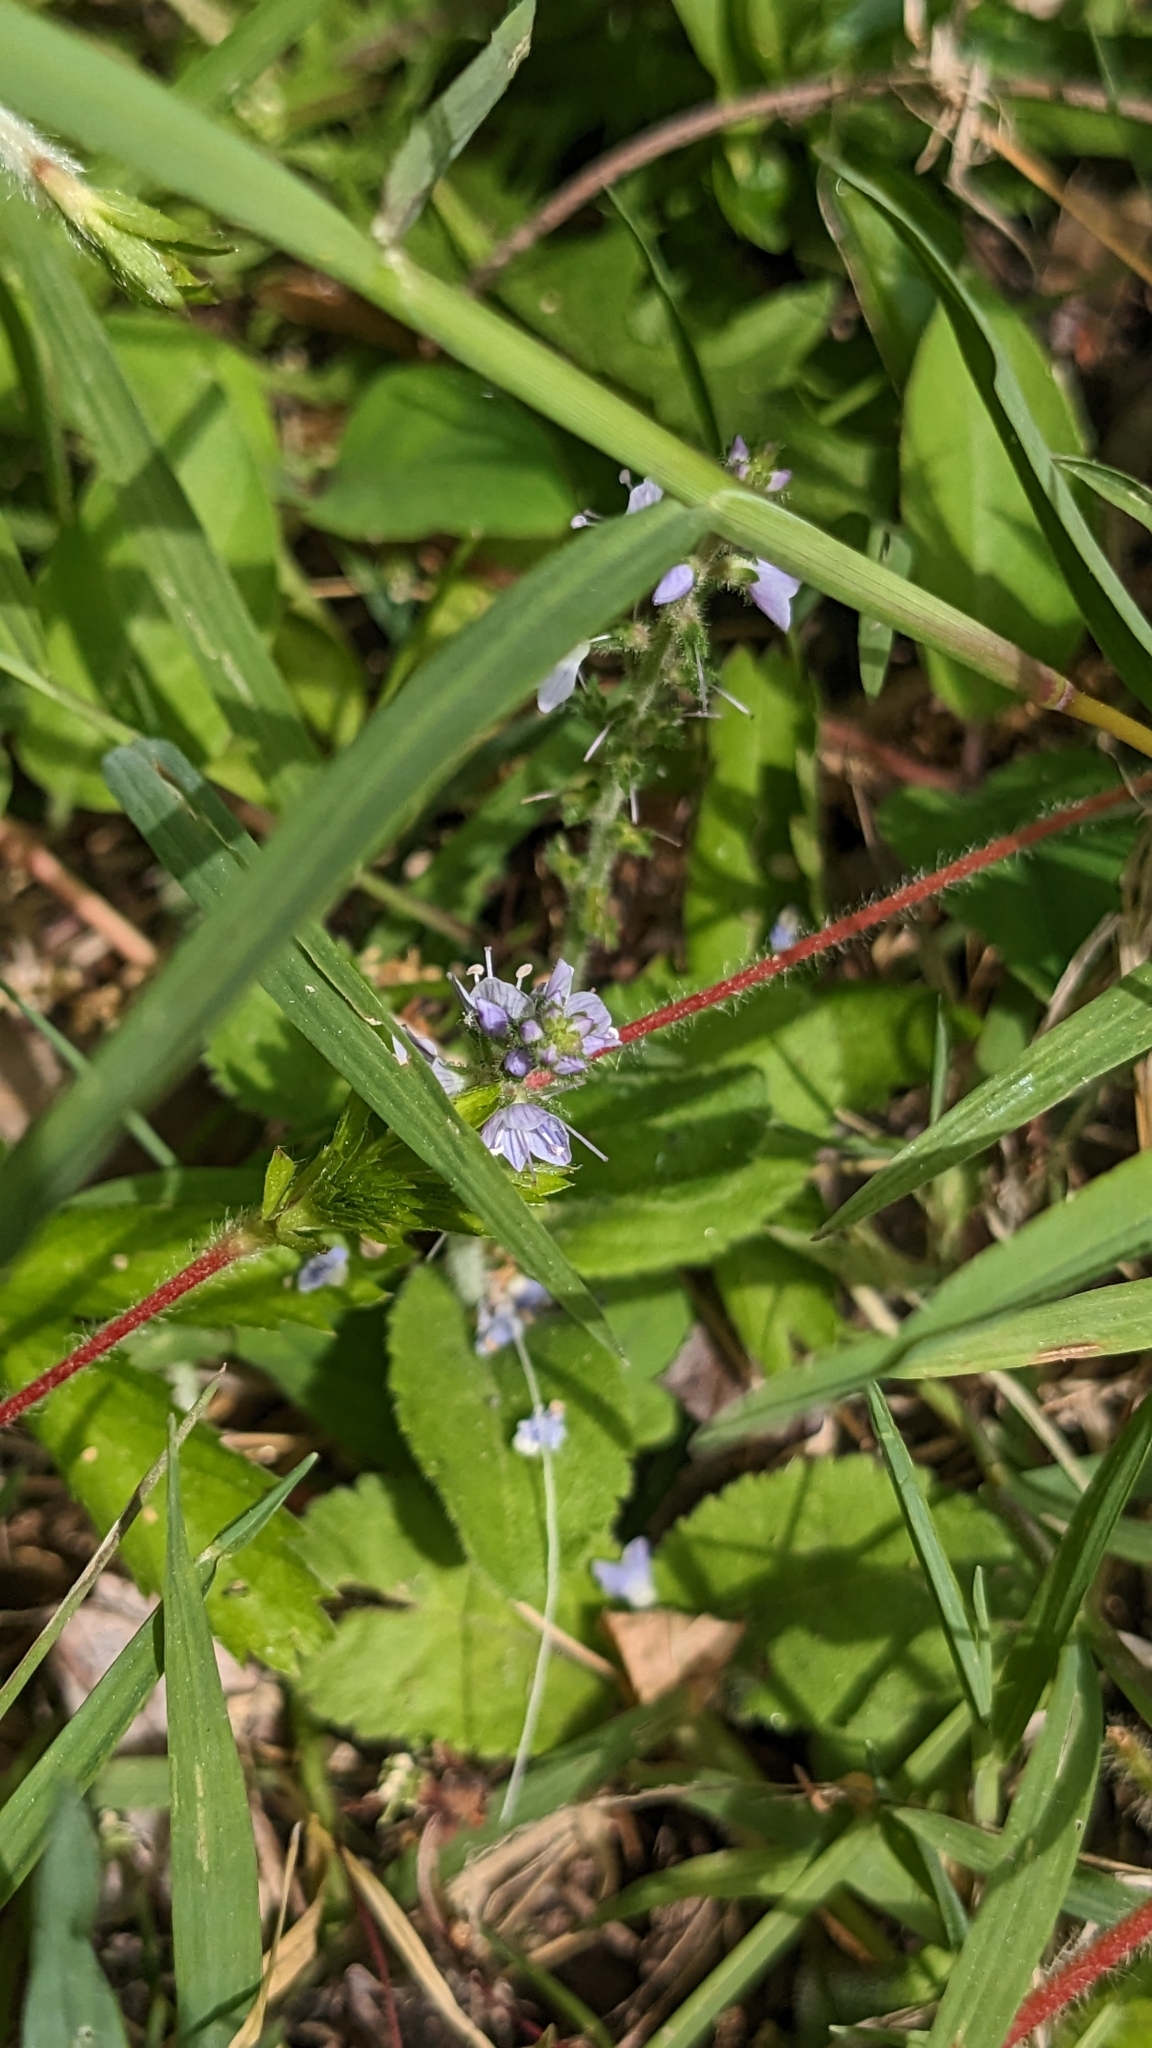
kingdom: Plantae
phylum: Tracheophyta
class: Magnoliopsida
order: Lamiales
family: Plantaginaceae
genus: Veronica
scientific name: Veronica officinalis
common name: Common speedwell
